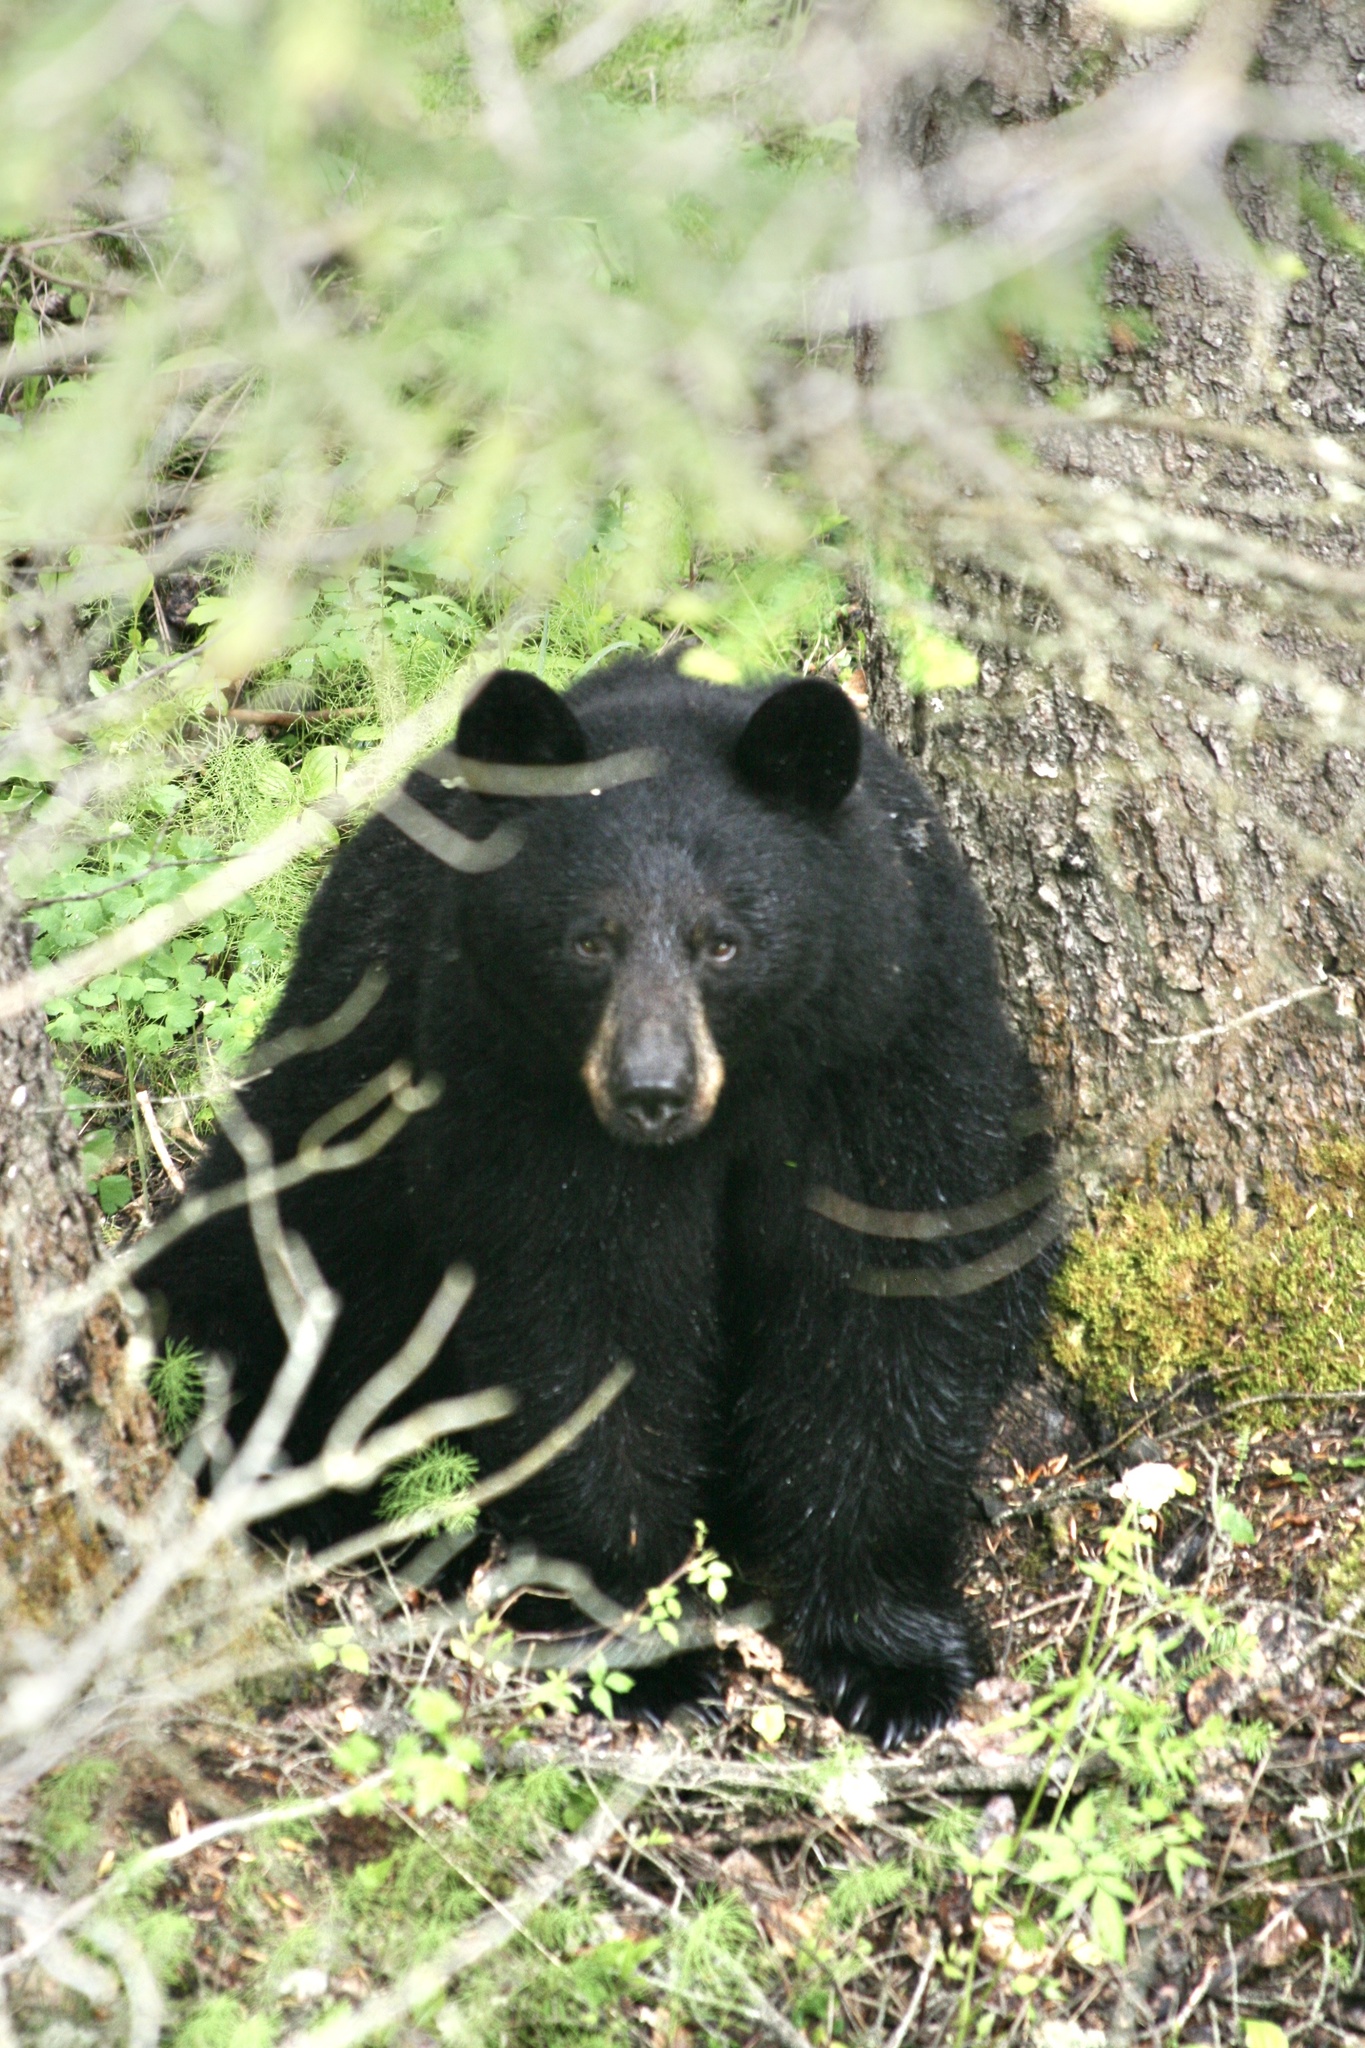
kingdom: Animalia
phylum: Chordata
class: Mammalia
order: Carnivora
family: Ursidae
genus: Ursus
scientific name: Ursus americanus
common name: American black bear
